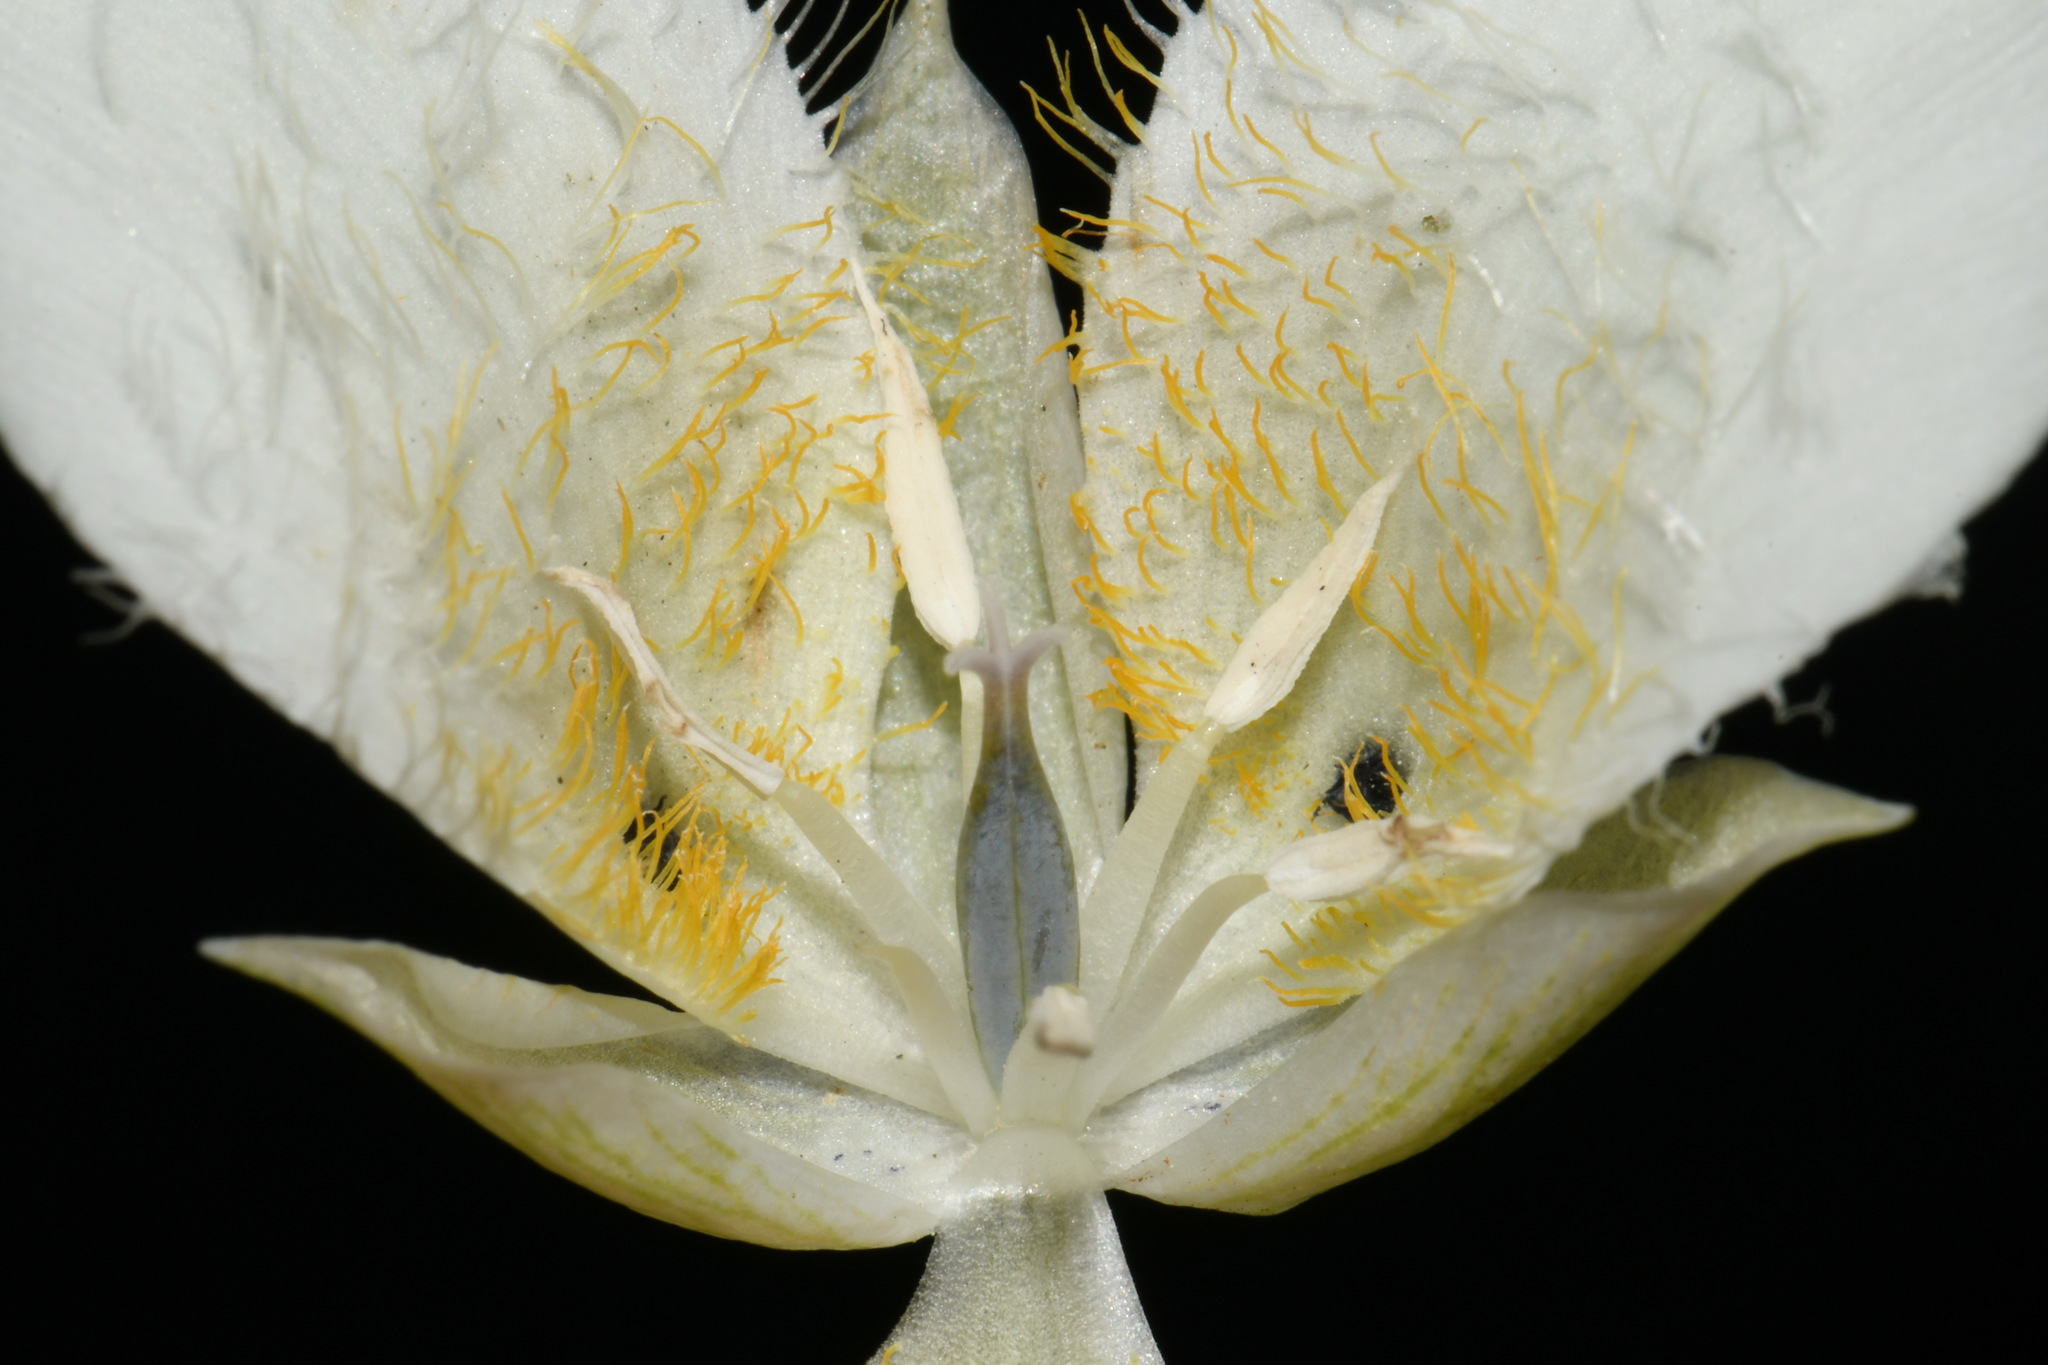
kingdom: Plantae
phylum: Tracheophyta
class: Liliopsida
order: Liliales
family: Liliaceae
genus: Calochortus
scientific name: Calochortus apiculatus
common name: Baker's mariposa lily
